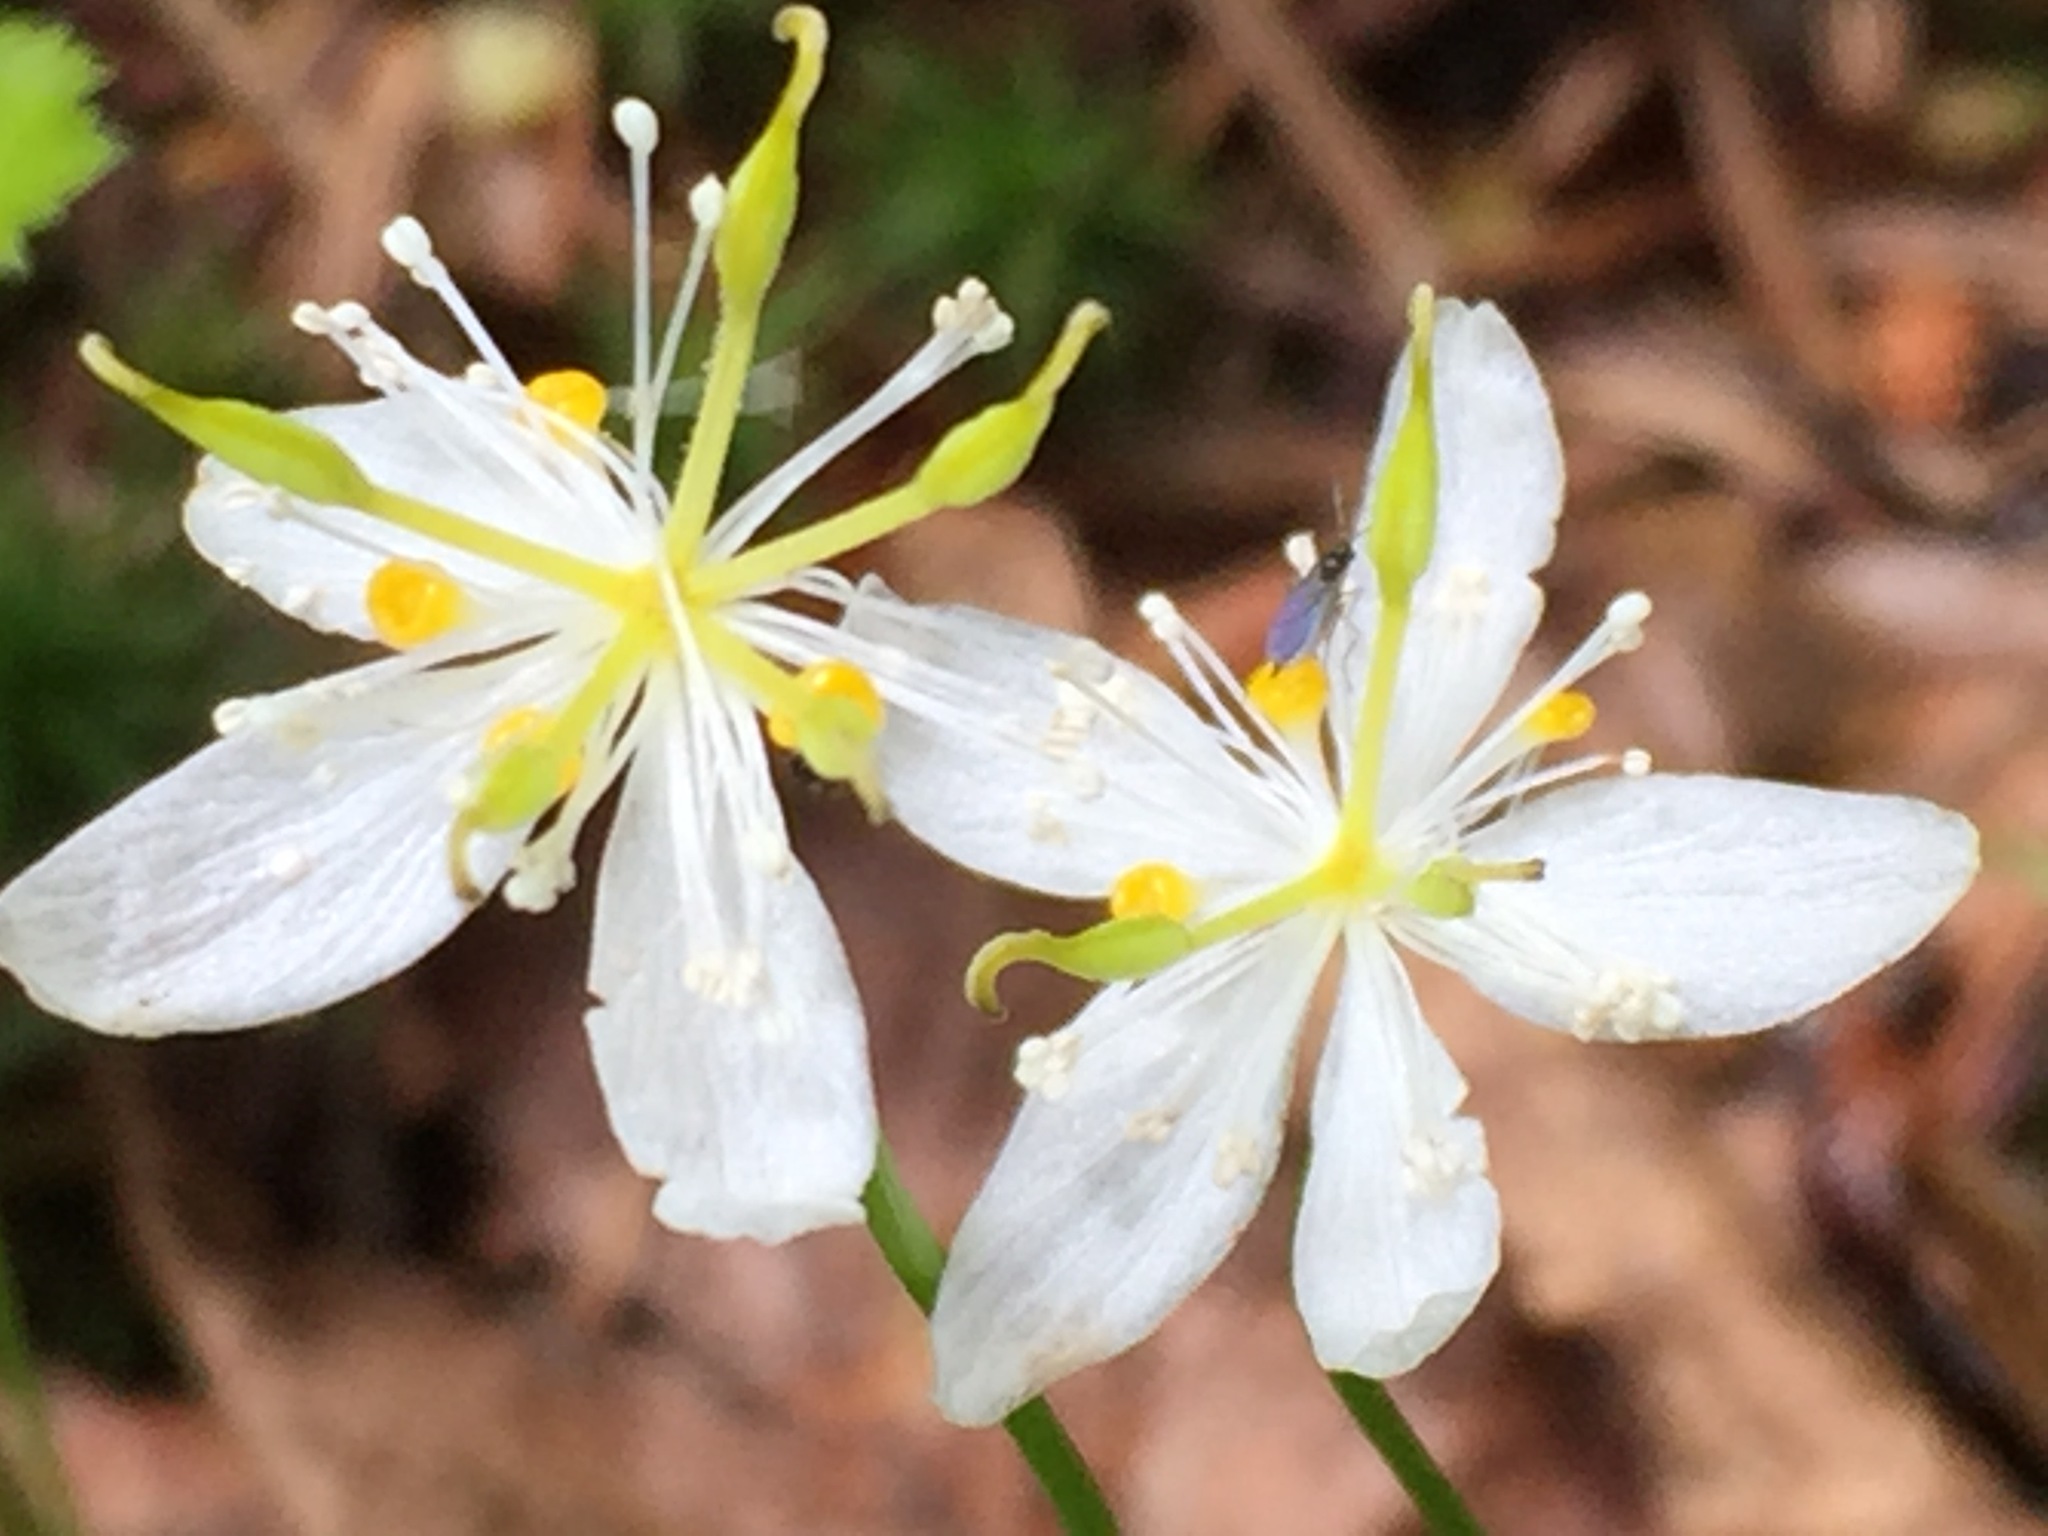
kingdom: Plantae
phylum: Tracheophyta
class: Magnoliopsida
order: Ranunculales
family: Ranunculaceae
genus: Coptis
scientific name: Coptis trifolia
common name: Canker-root
